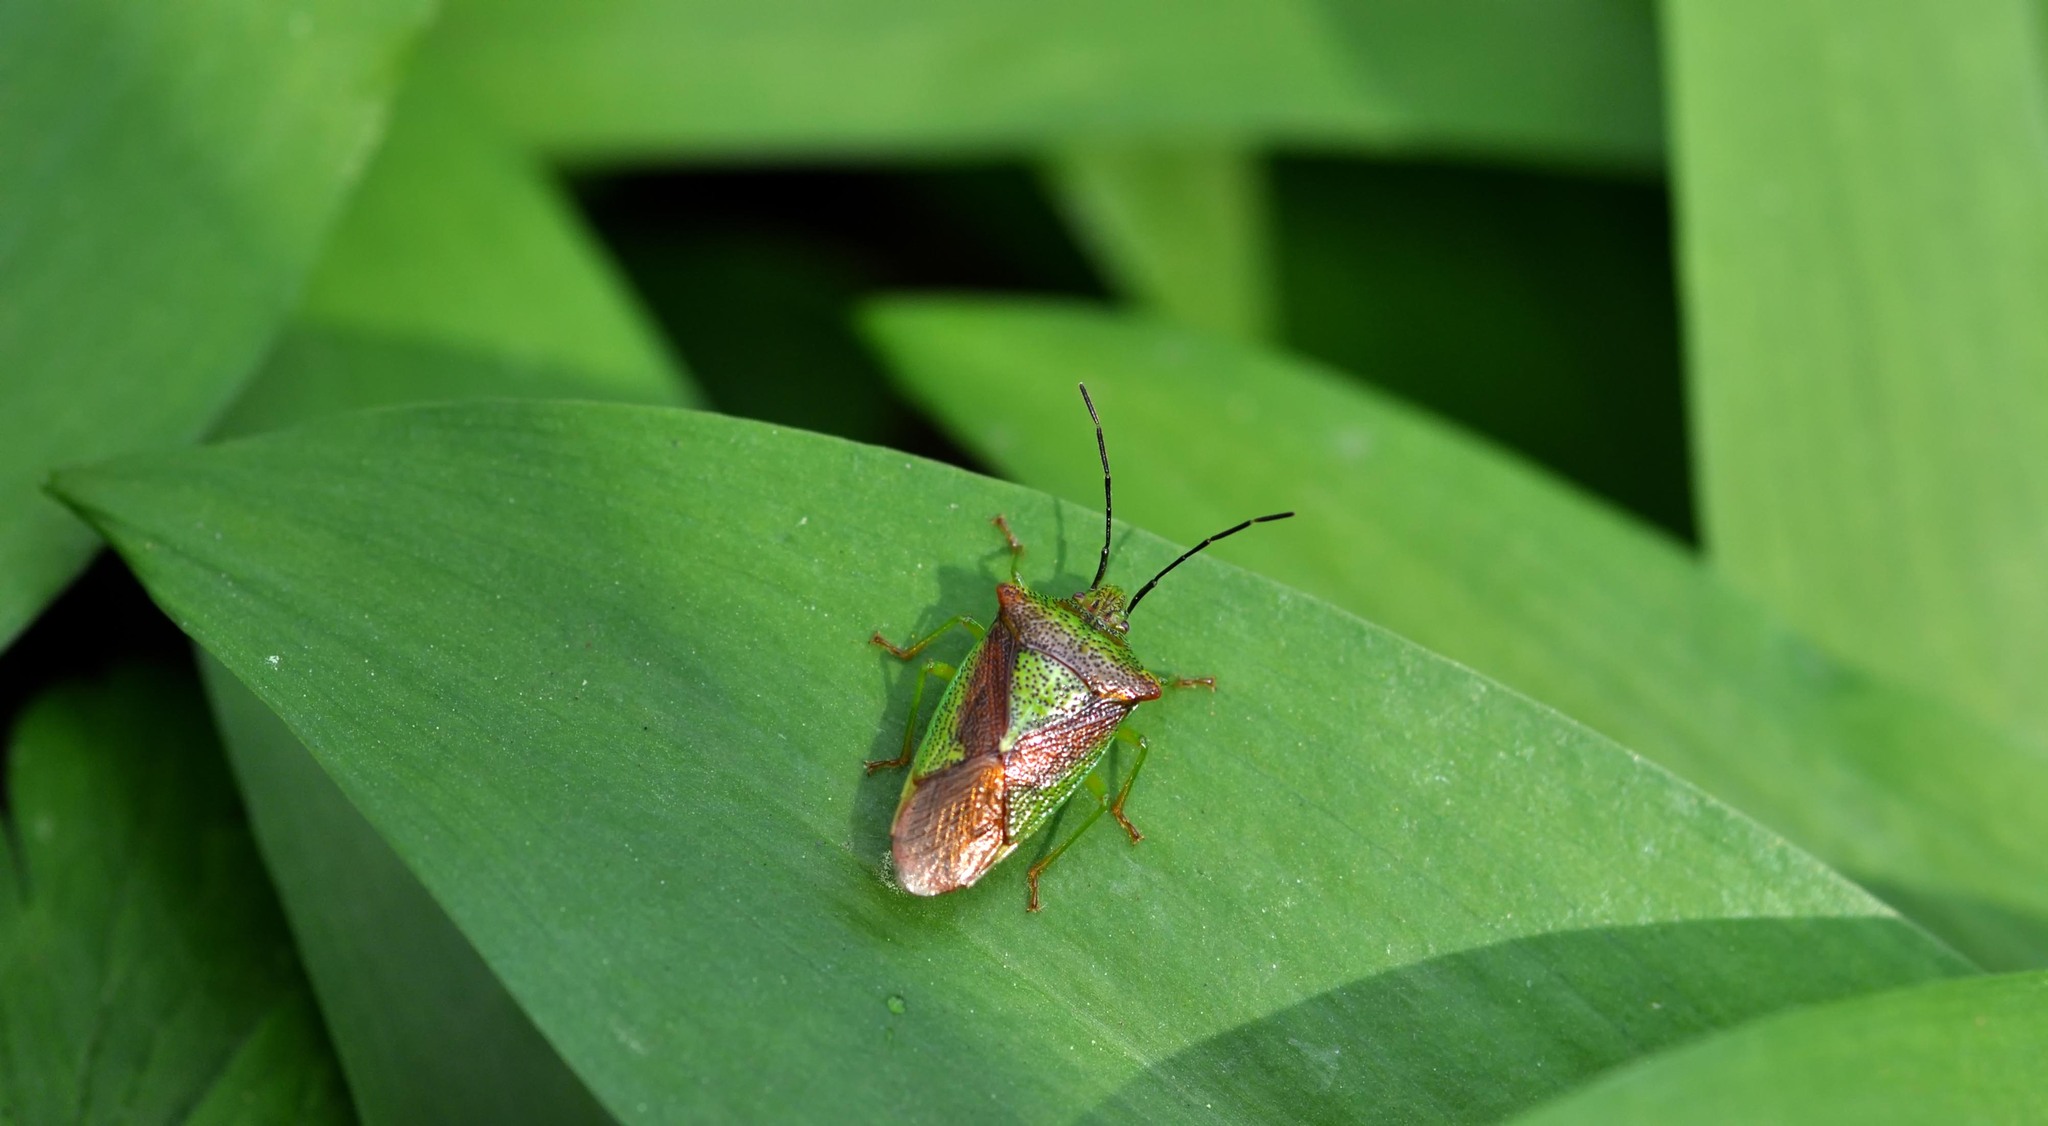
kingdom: Animalia
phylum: Arthropoda
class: Insecta
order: Hemiptera
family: Acanthosomatidae
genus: Acanthosoma
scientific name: Acanthosoma haemorrhoidale
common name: Hawthorn shieldbug
